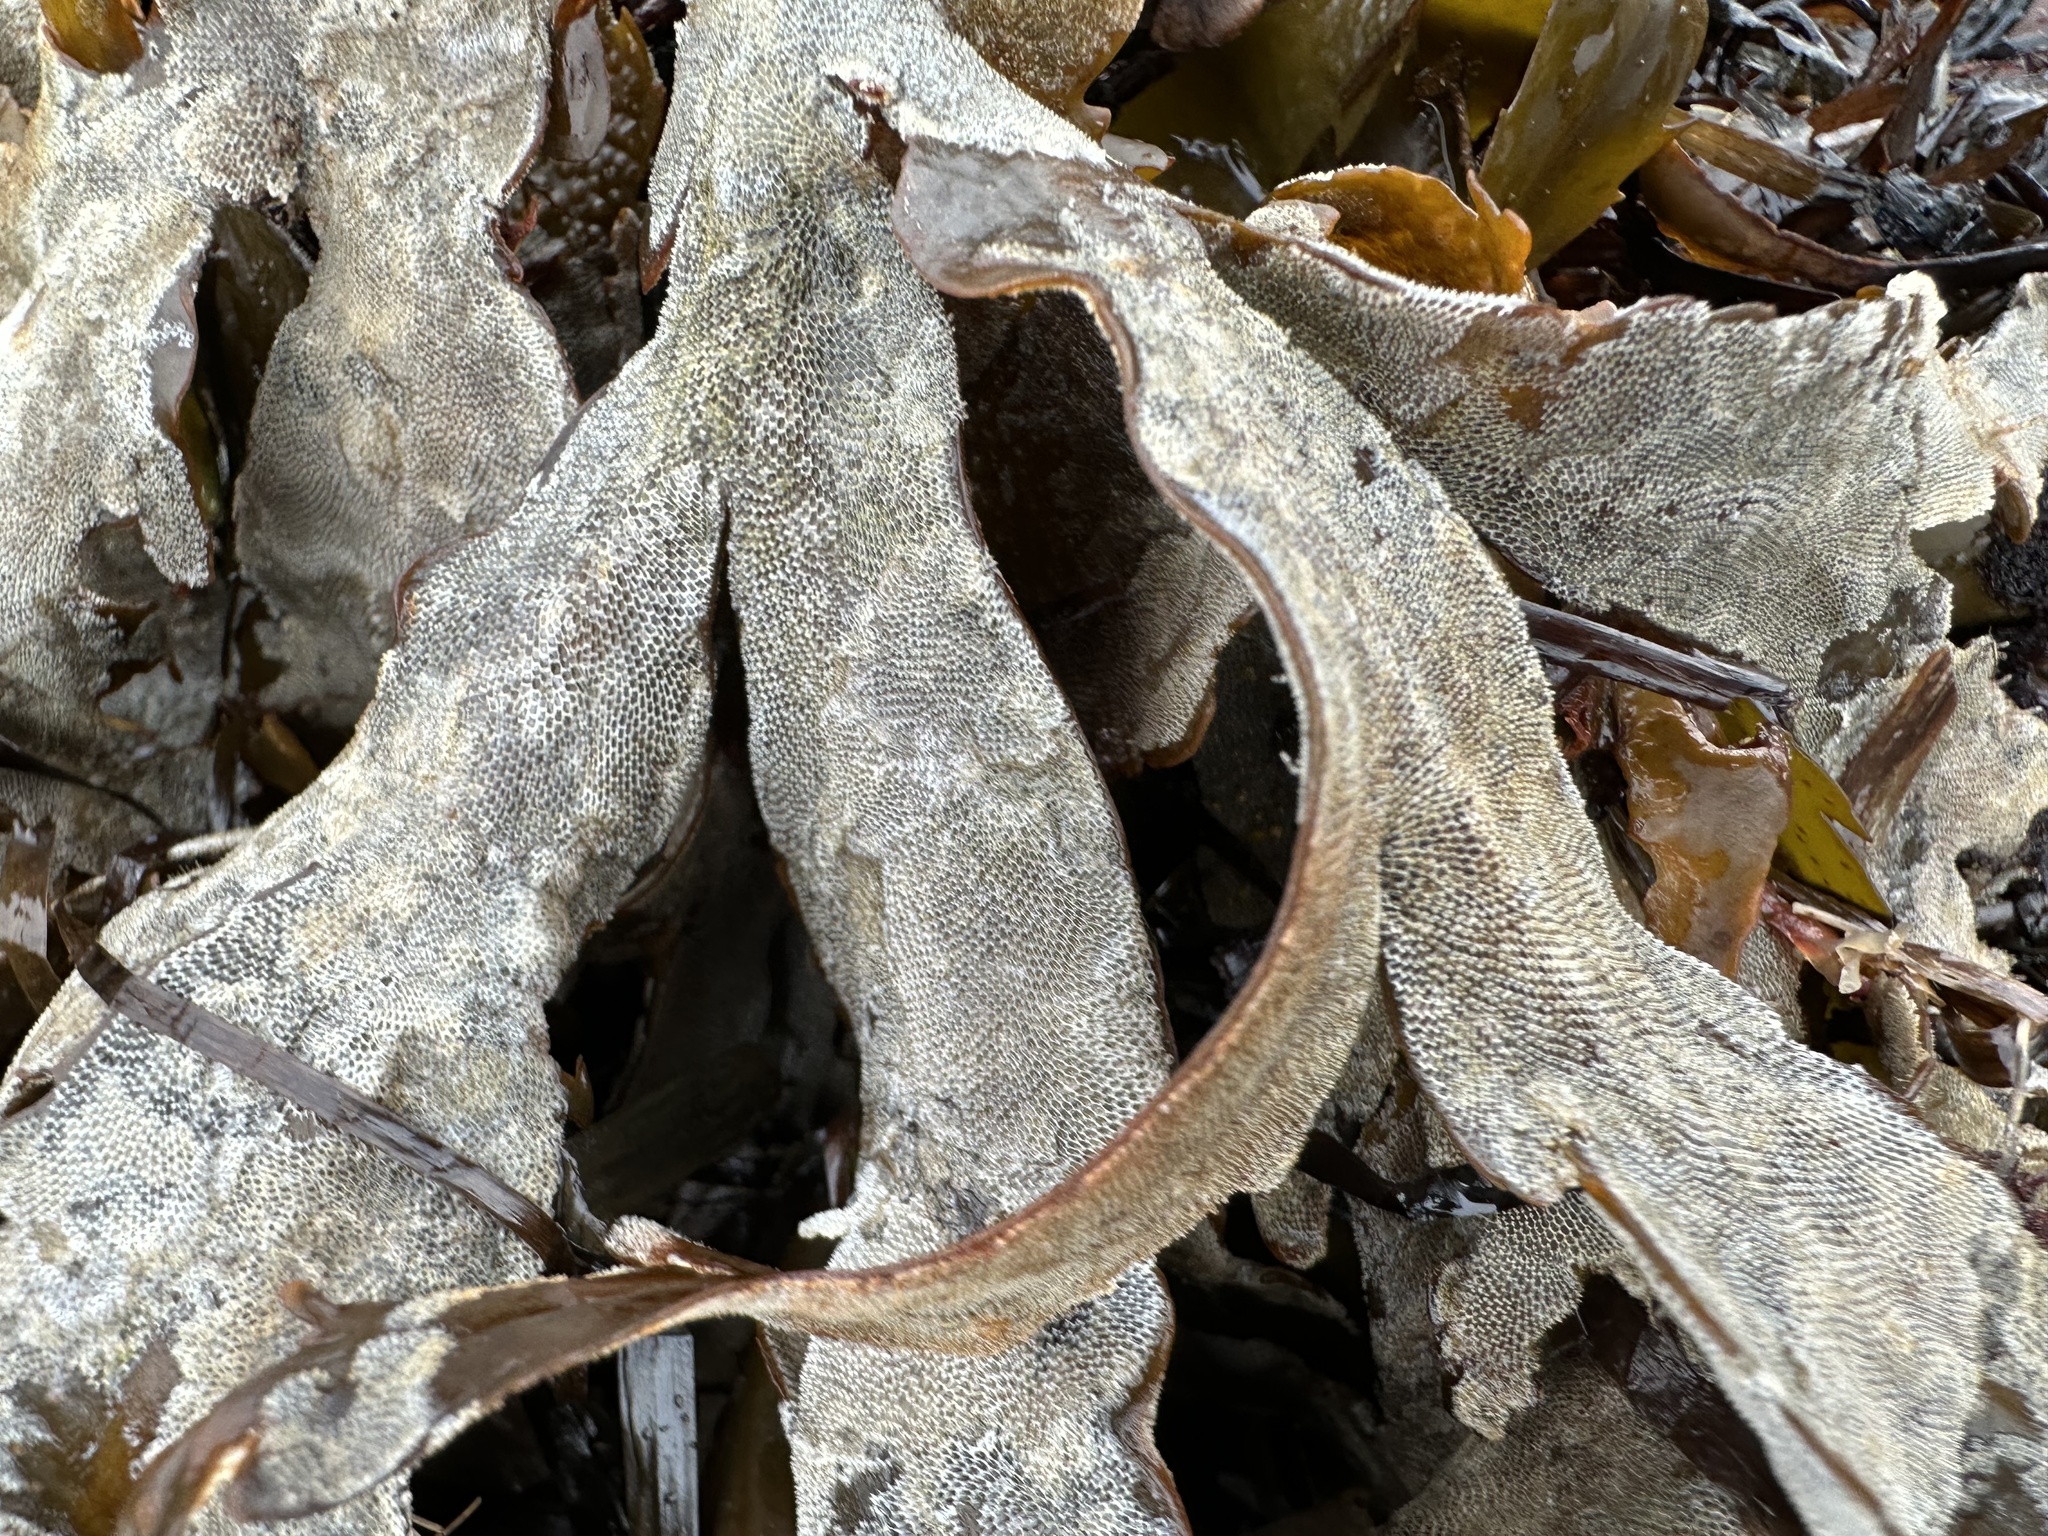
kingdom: Animalia
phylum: Bryozoa
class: Gymnolaemata
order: Cheilostomatida
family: Membraniporidae
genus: Membranipora
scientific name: Membranipora membranacea
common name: Sea mat
